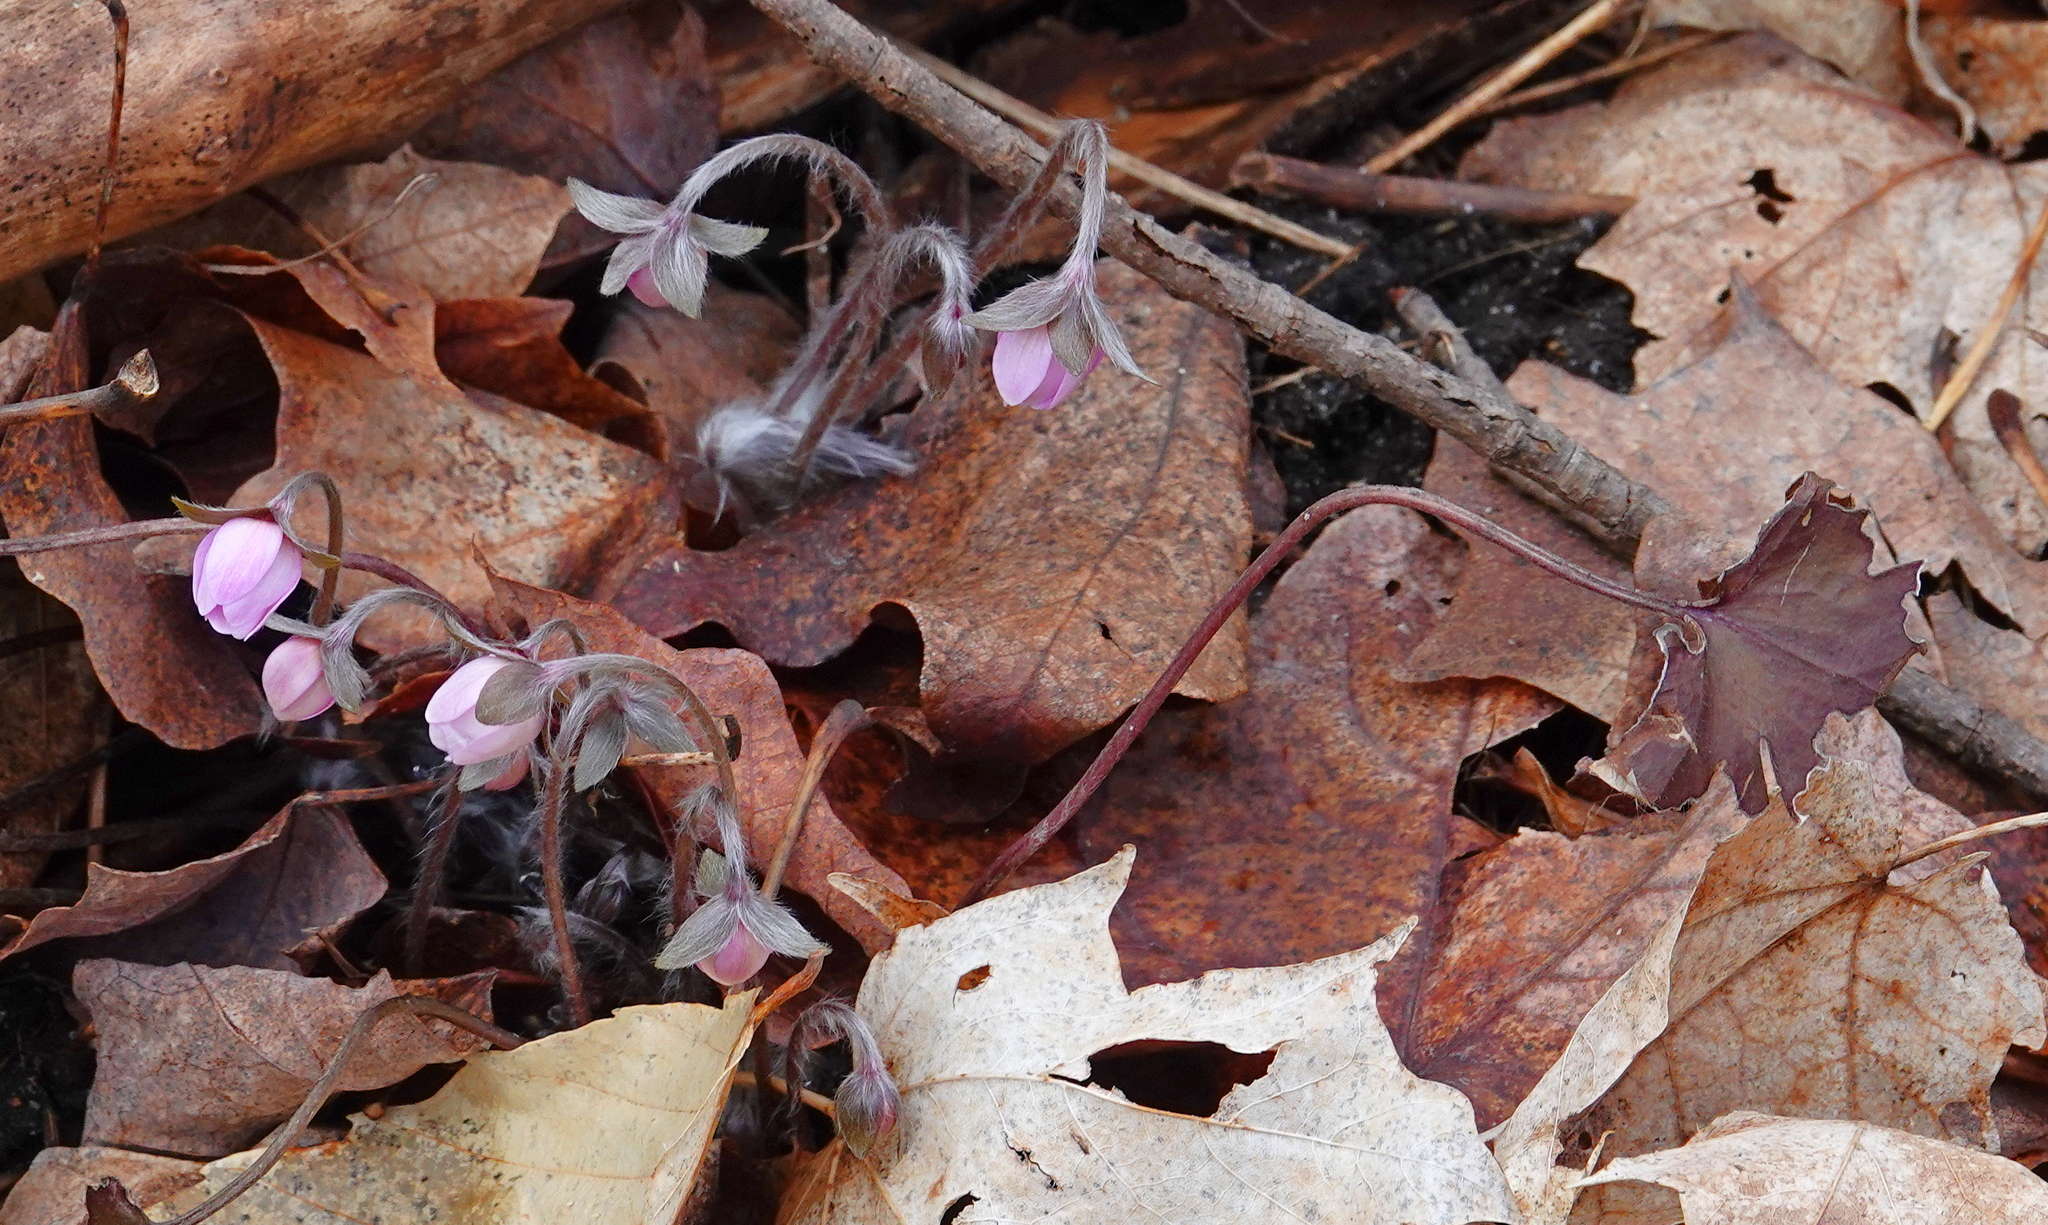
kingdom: Plantae
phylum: Tracheophyta
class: Magnoliopsida
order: Ranunculales
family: Ranunculaceae
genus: Hepatica
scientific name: Hepatica acutiloba
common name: Sharp-lobed hepatica
